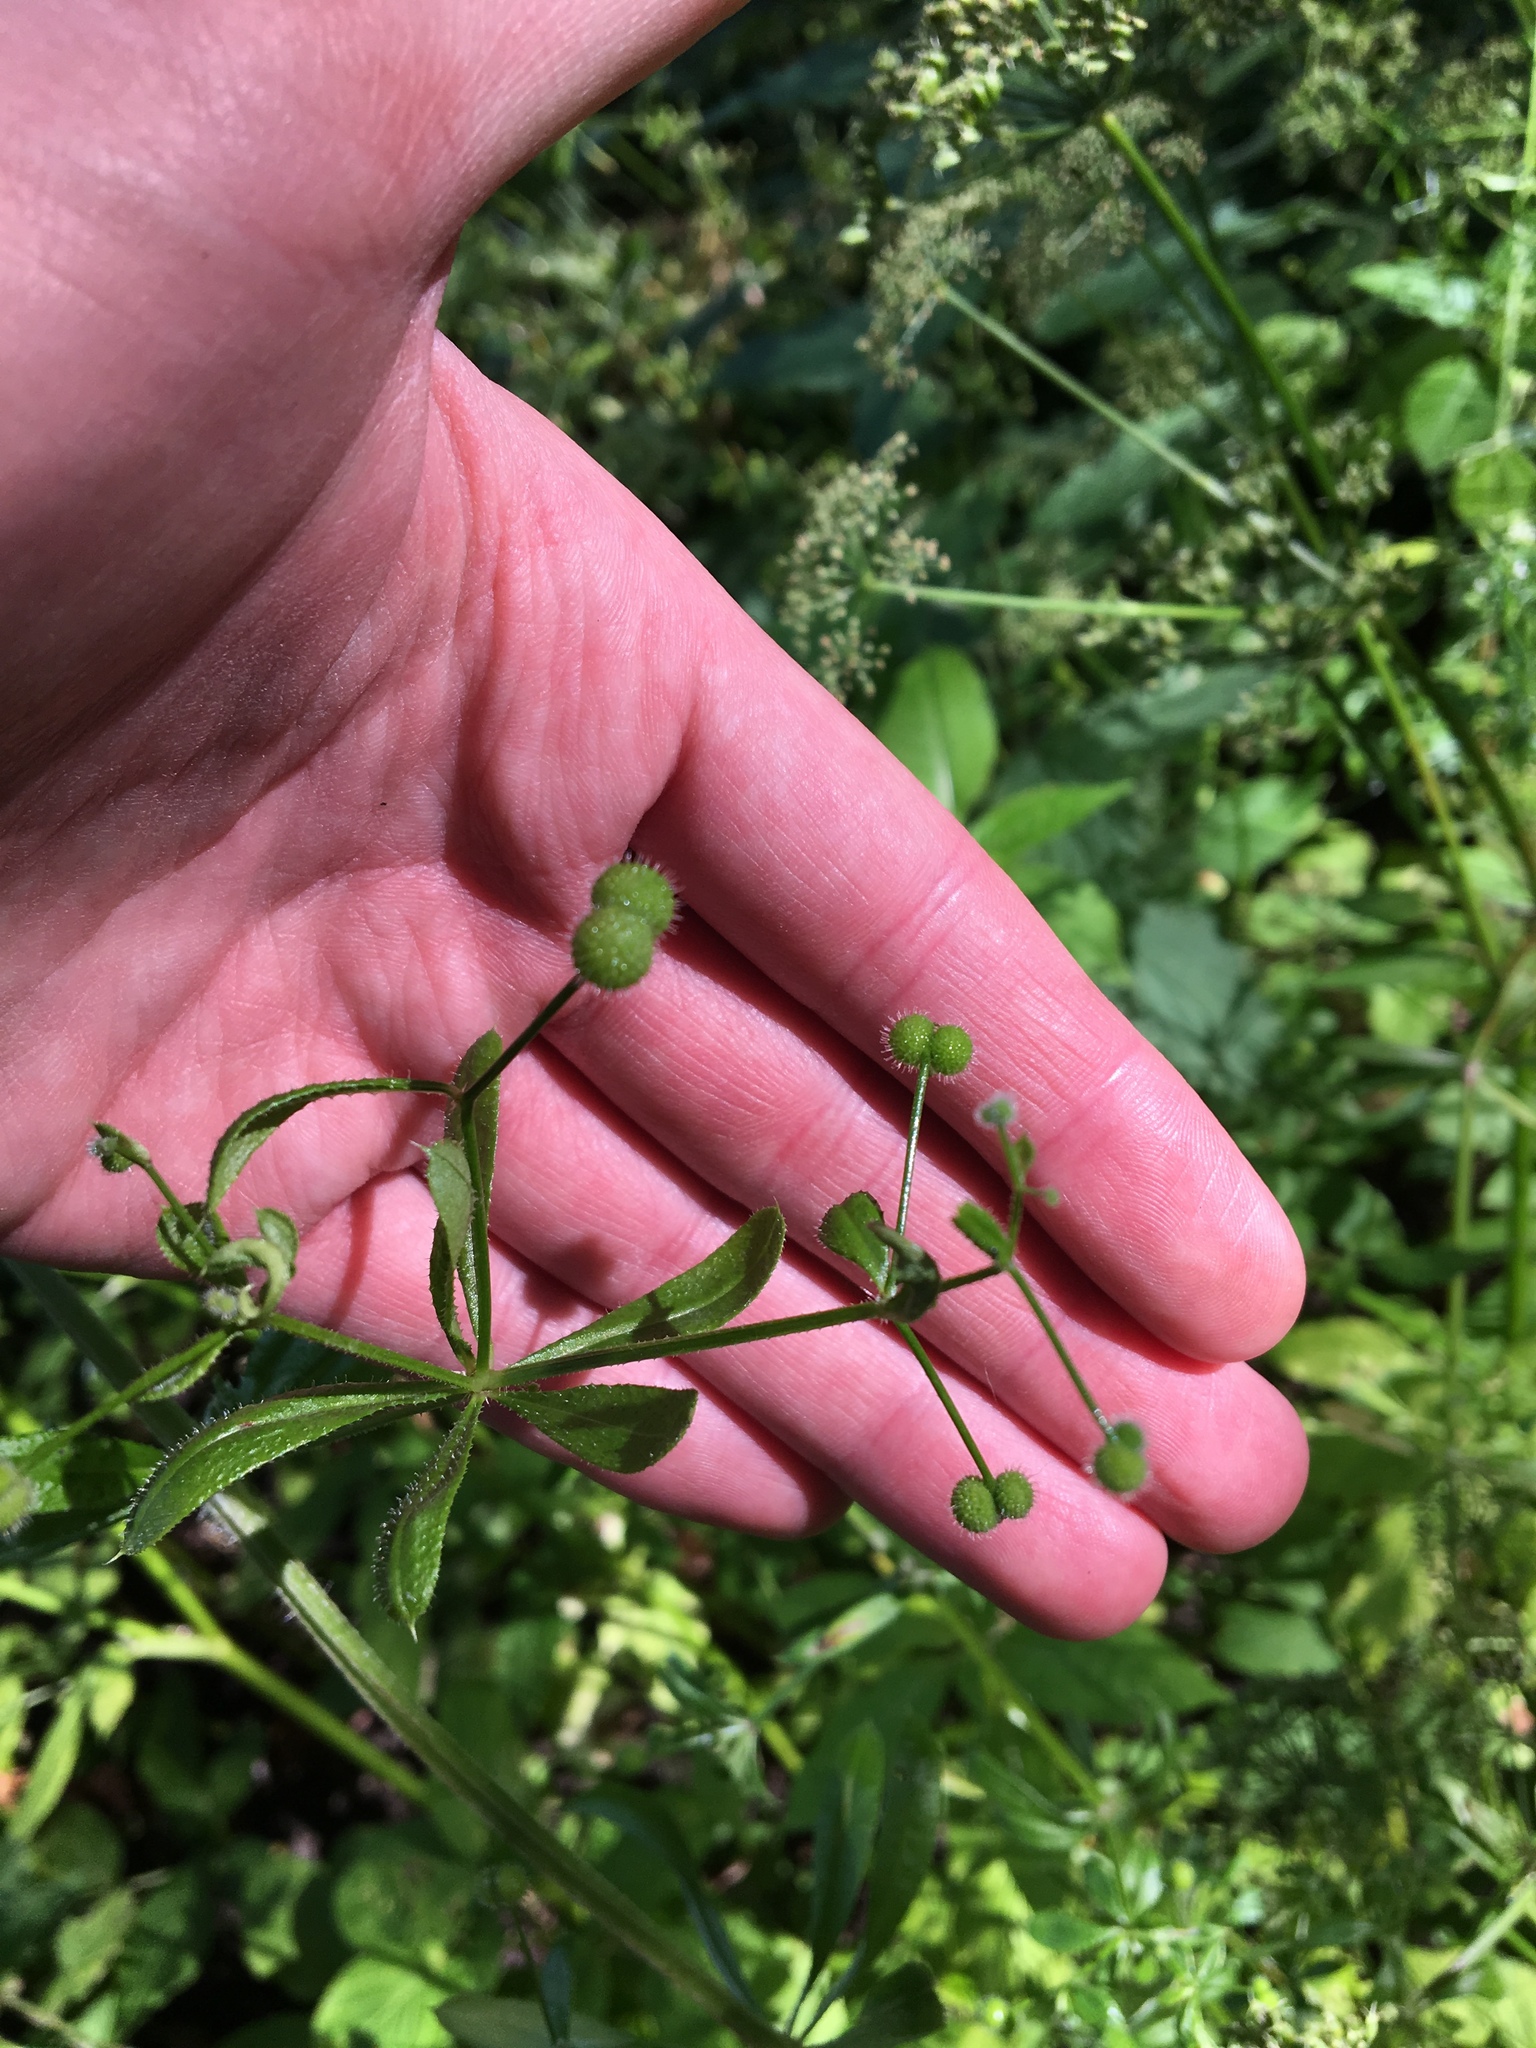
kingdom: Plantae
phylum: Tracheophyta
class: Magnoliopsida
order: Gentianales
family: Rubiaceae
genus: Galium
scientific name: Galium aparine
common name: Cleavers
